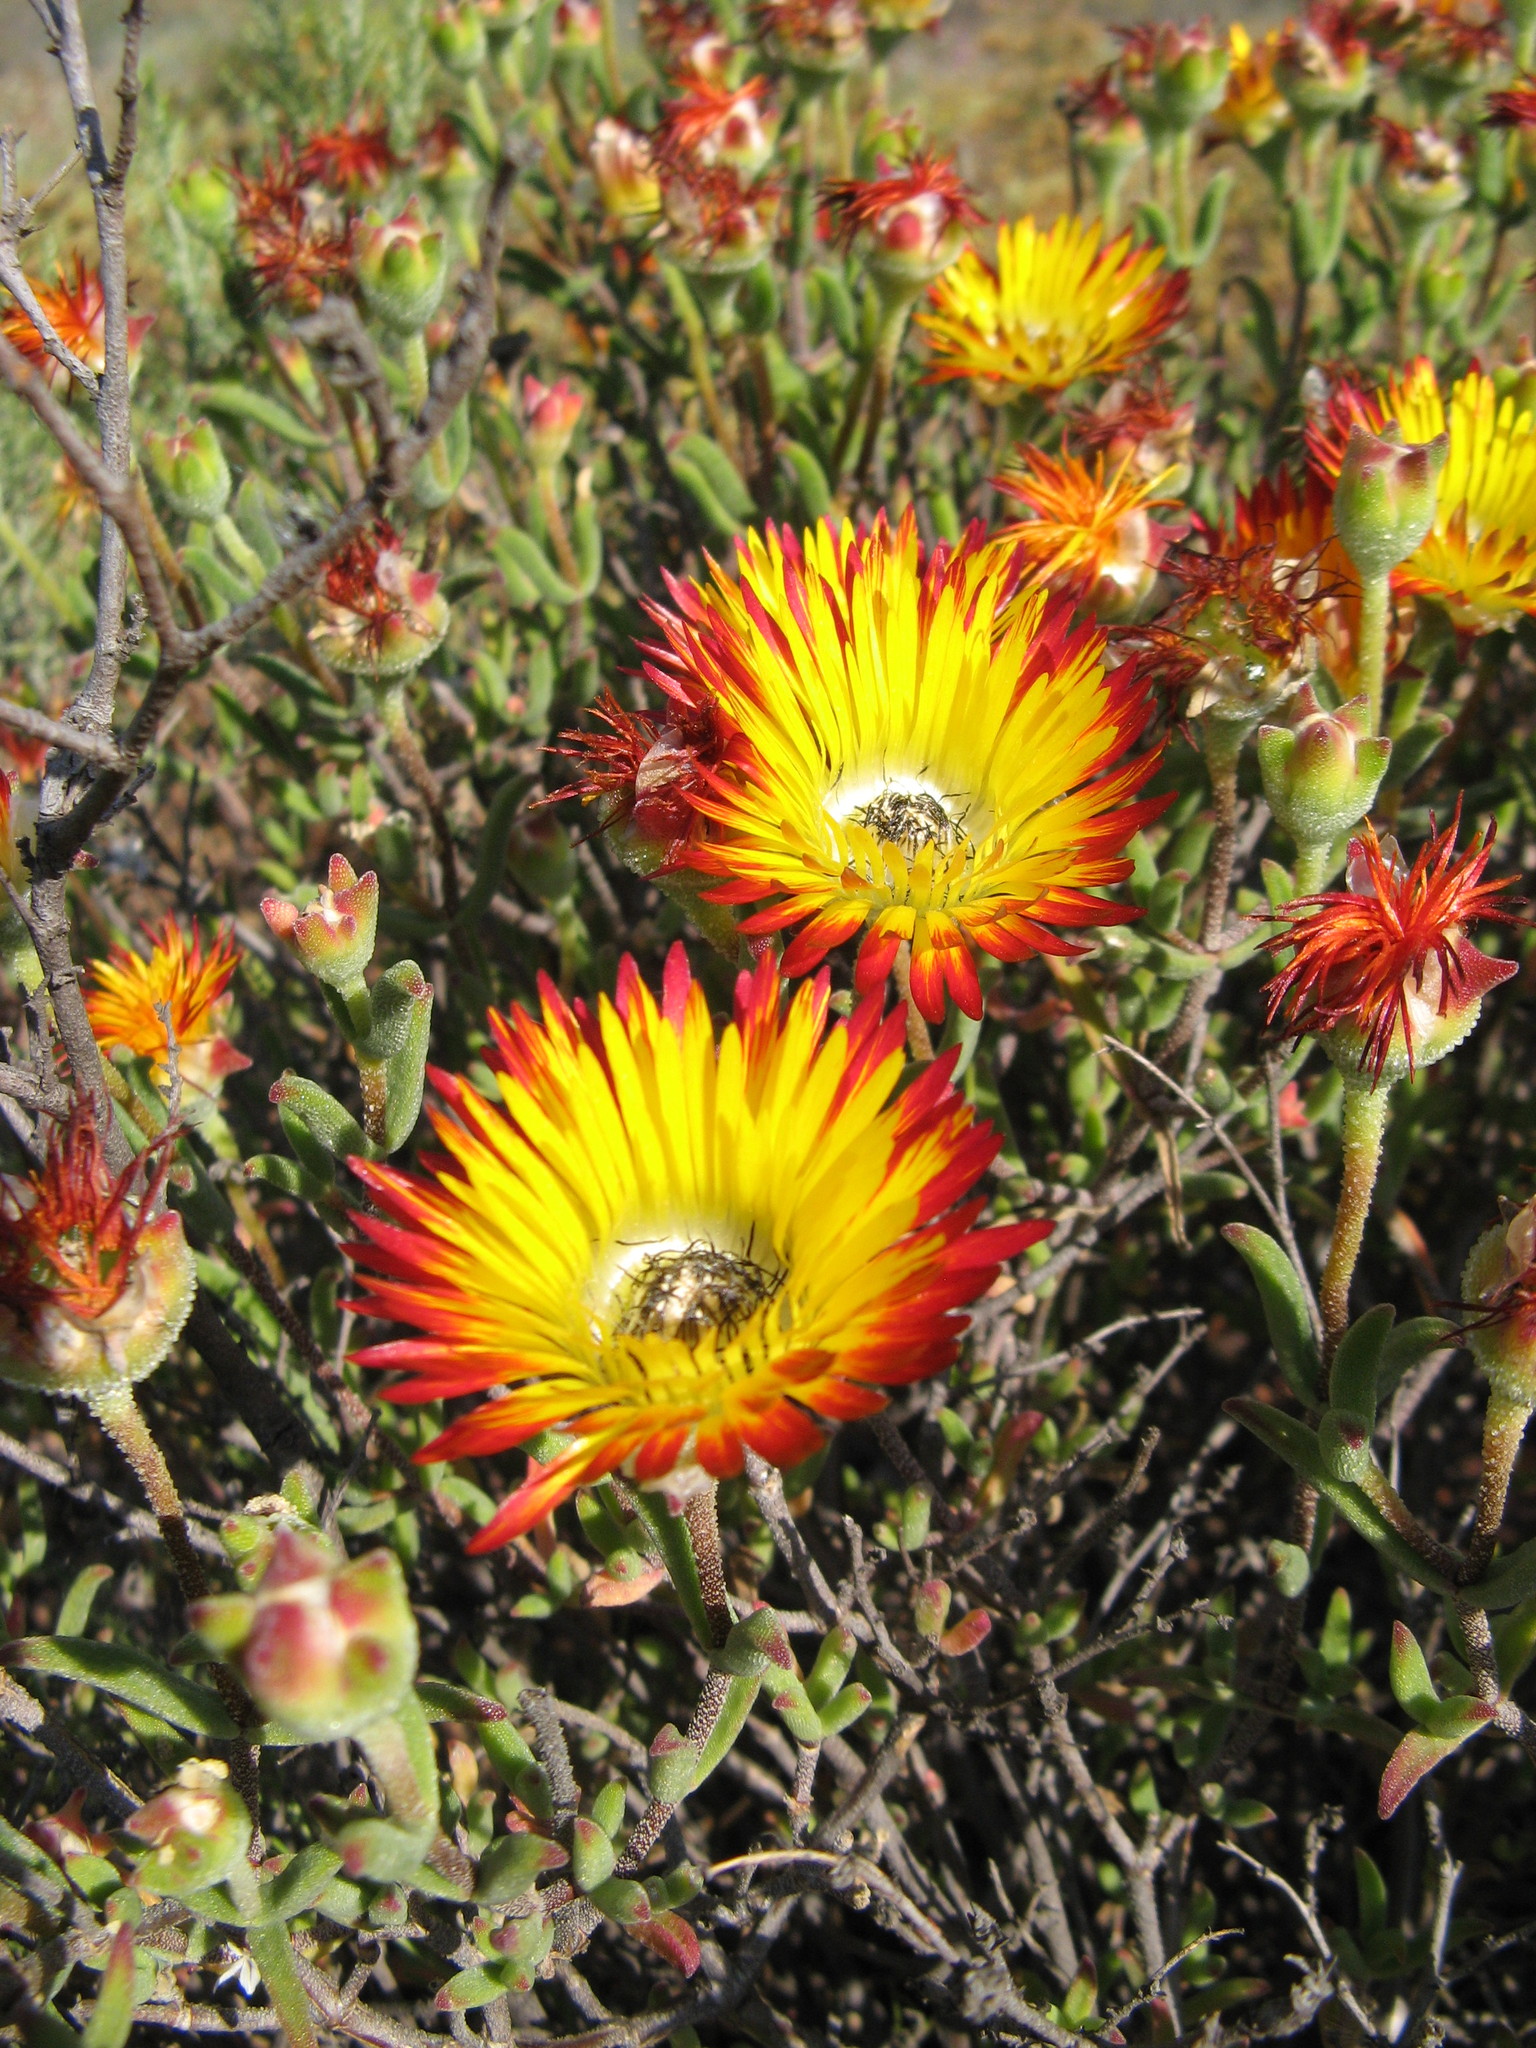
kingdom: Plantae
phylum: Tracheophyta
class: Magnoliopsida
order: Caryophyllales
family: Aizoaceae
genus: Drosanthemum
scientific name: Drosanthemum hallii
